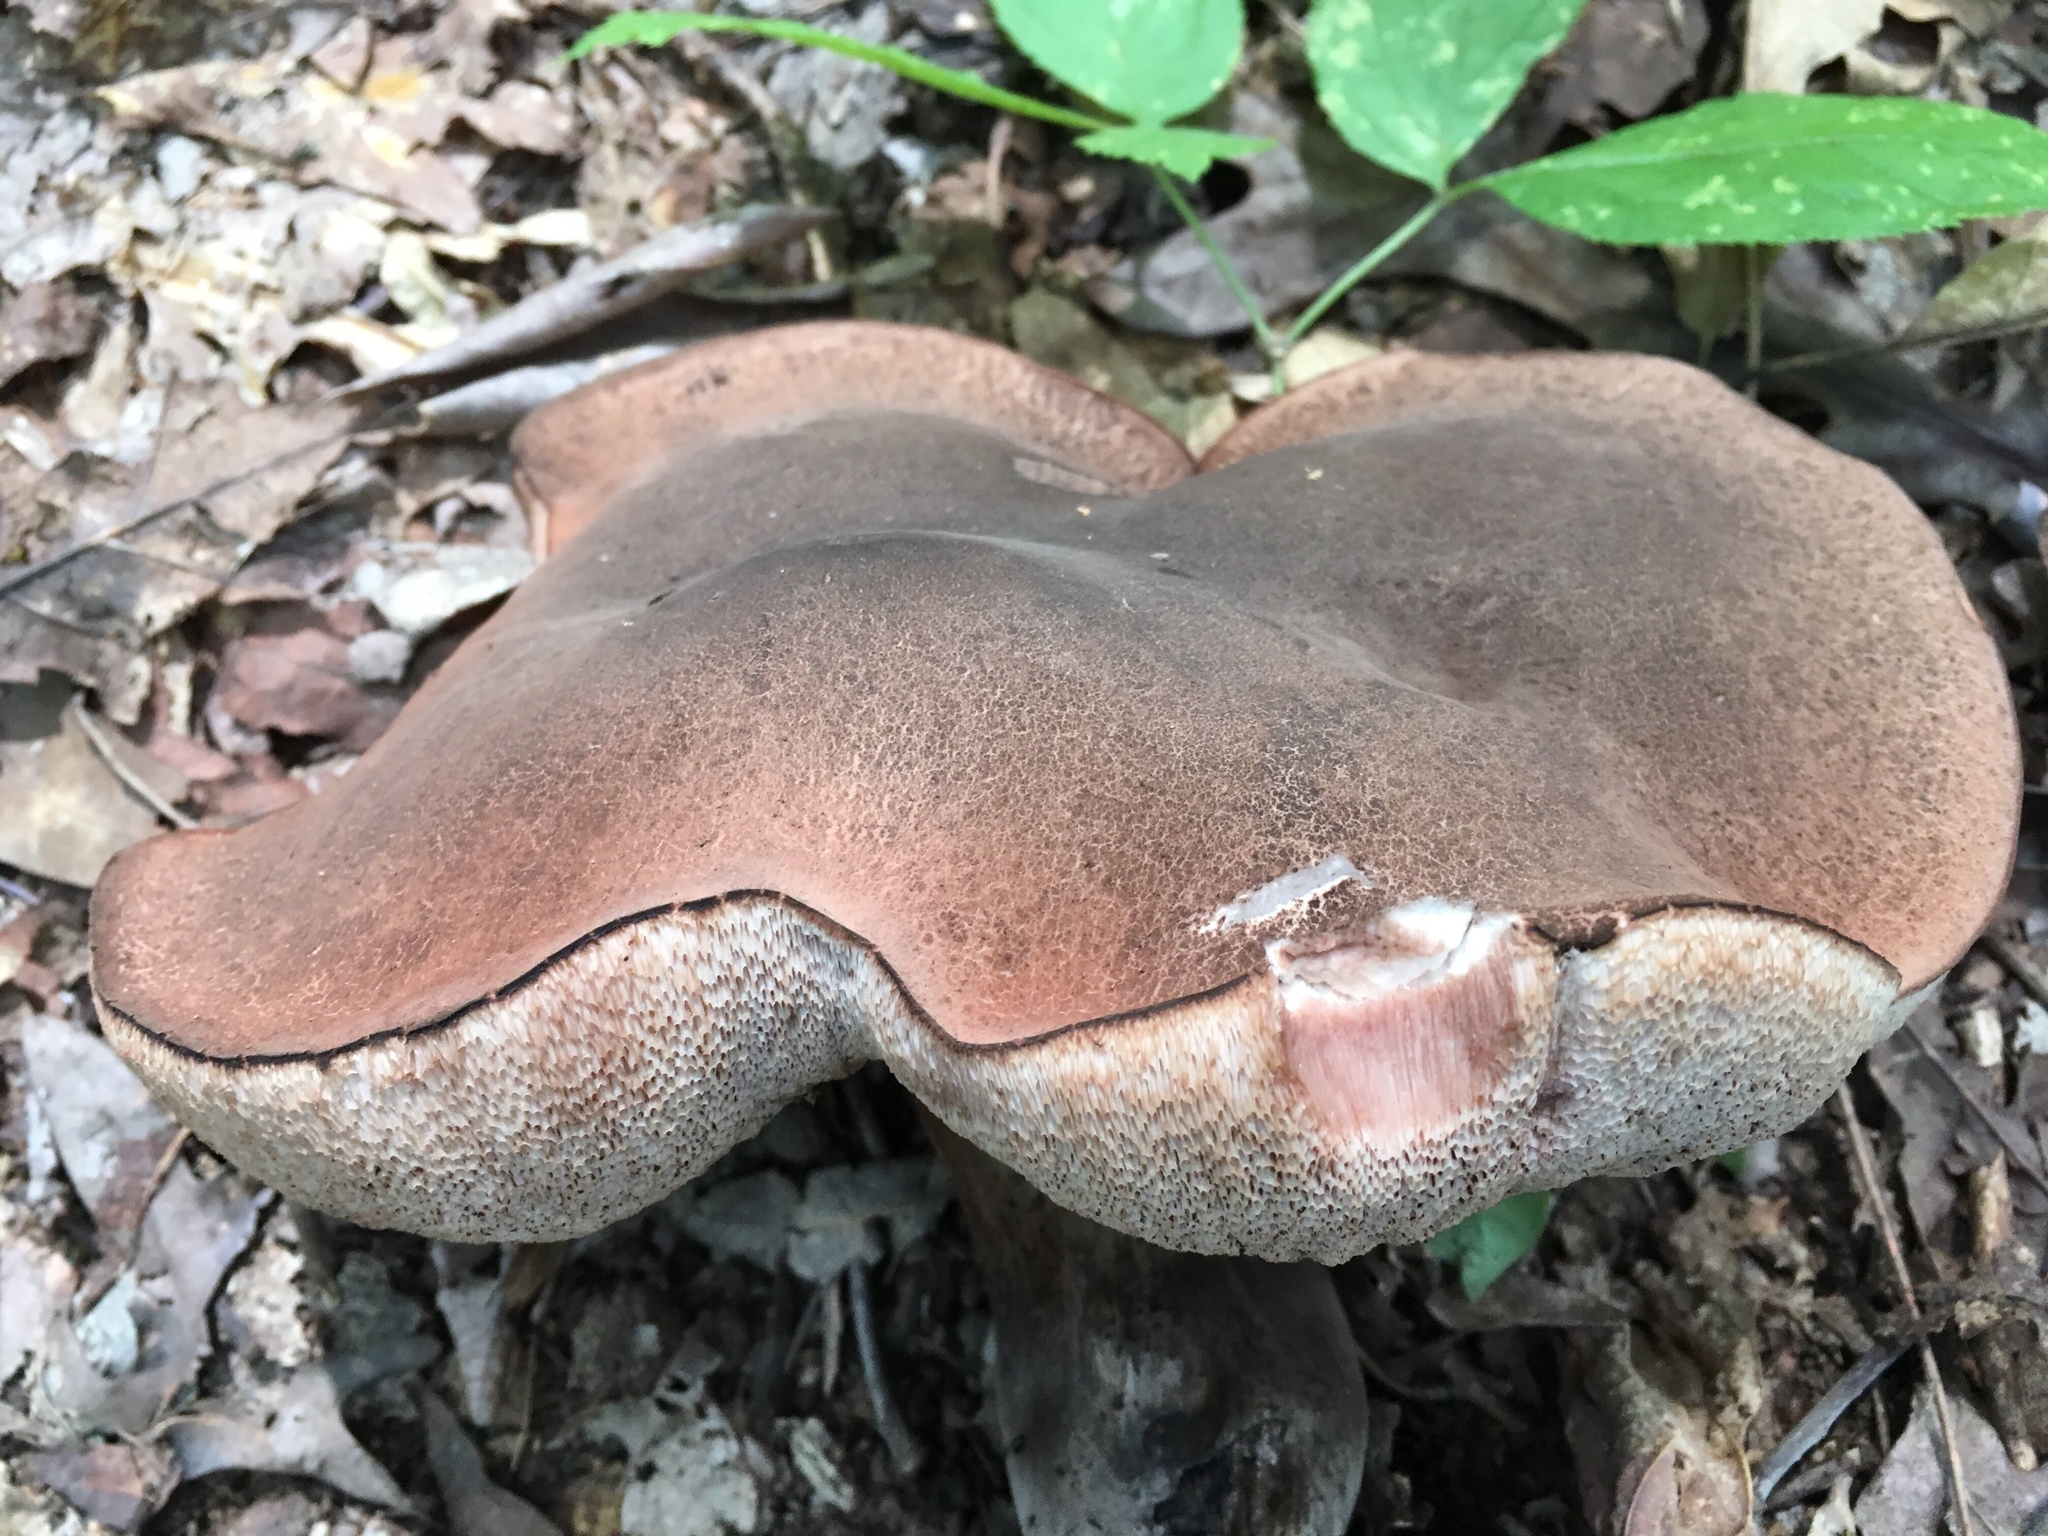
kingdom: Fungi
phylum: Basidiomycota
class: Agaricomycetes
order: Boletales
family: Boletaceae
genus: Tylopilus
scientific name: Tylopilus variobrunneus
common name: Brown-net bolete
